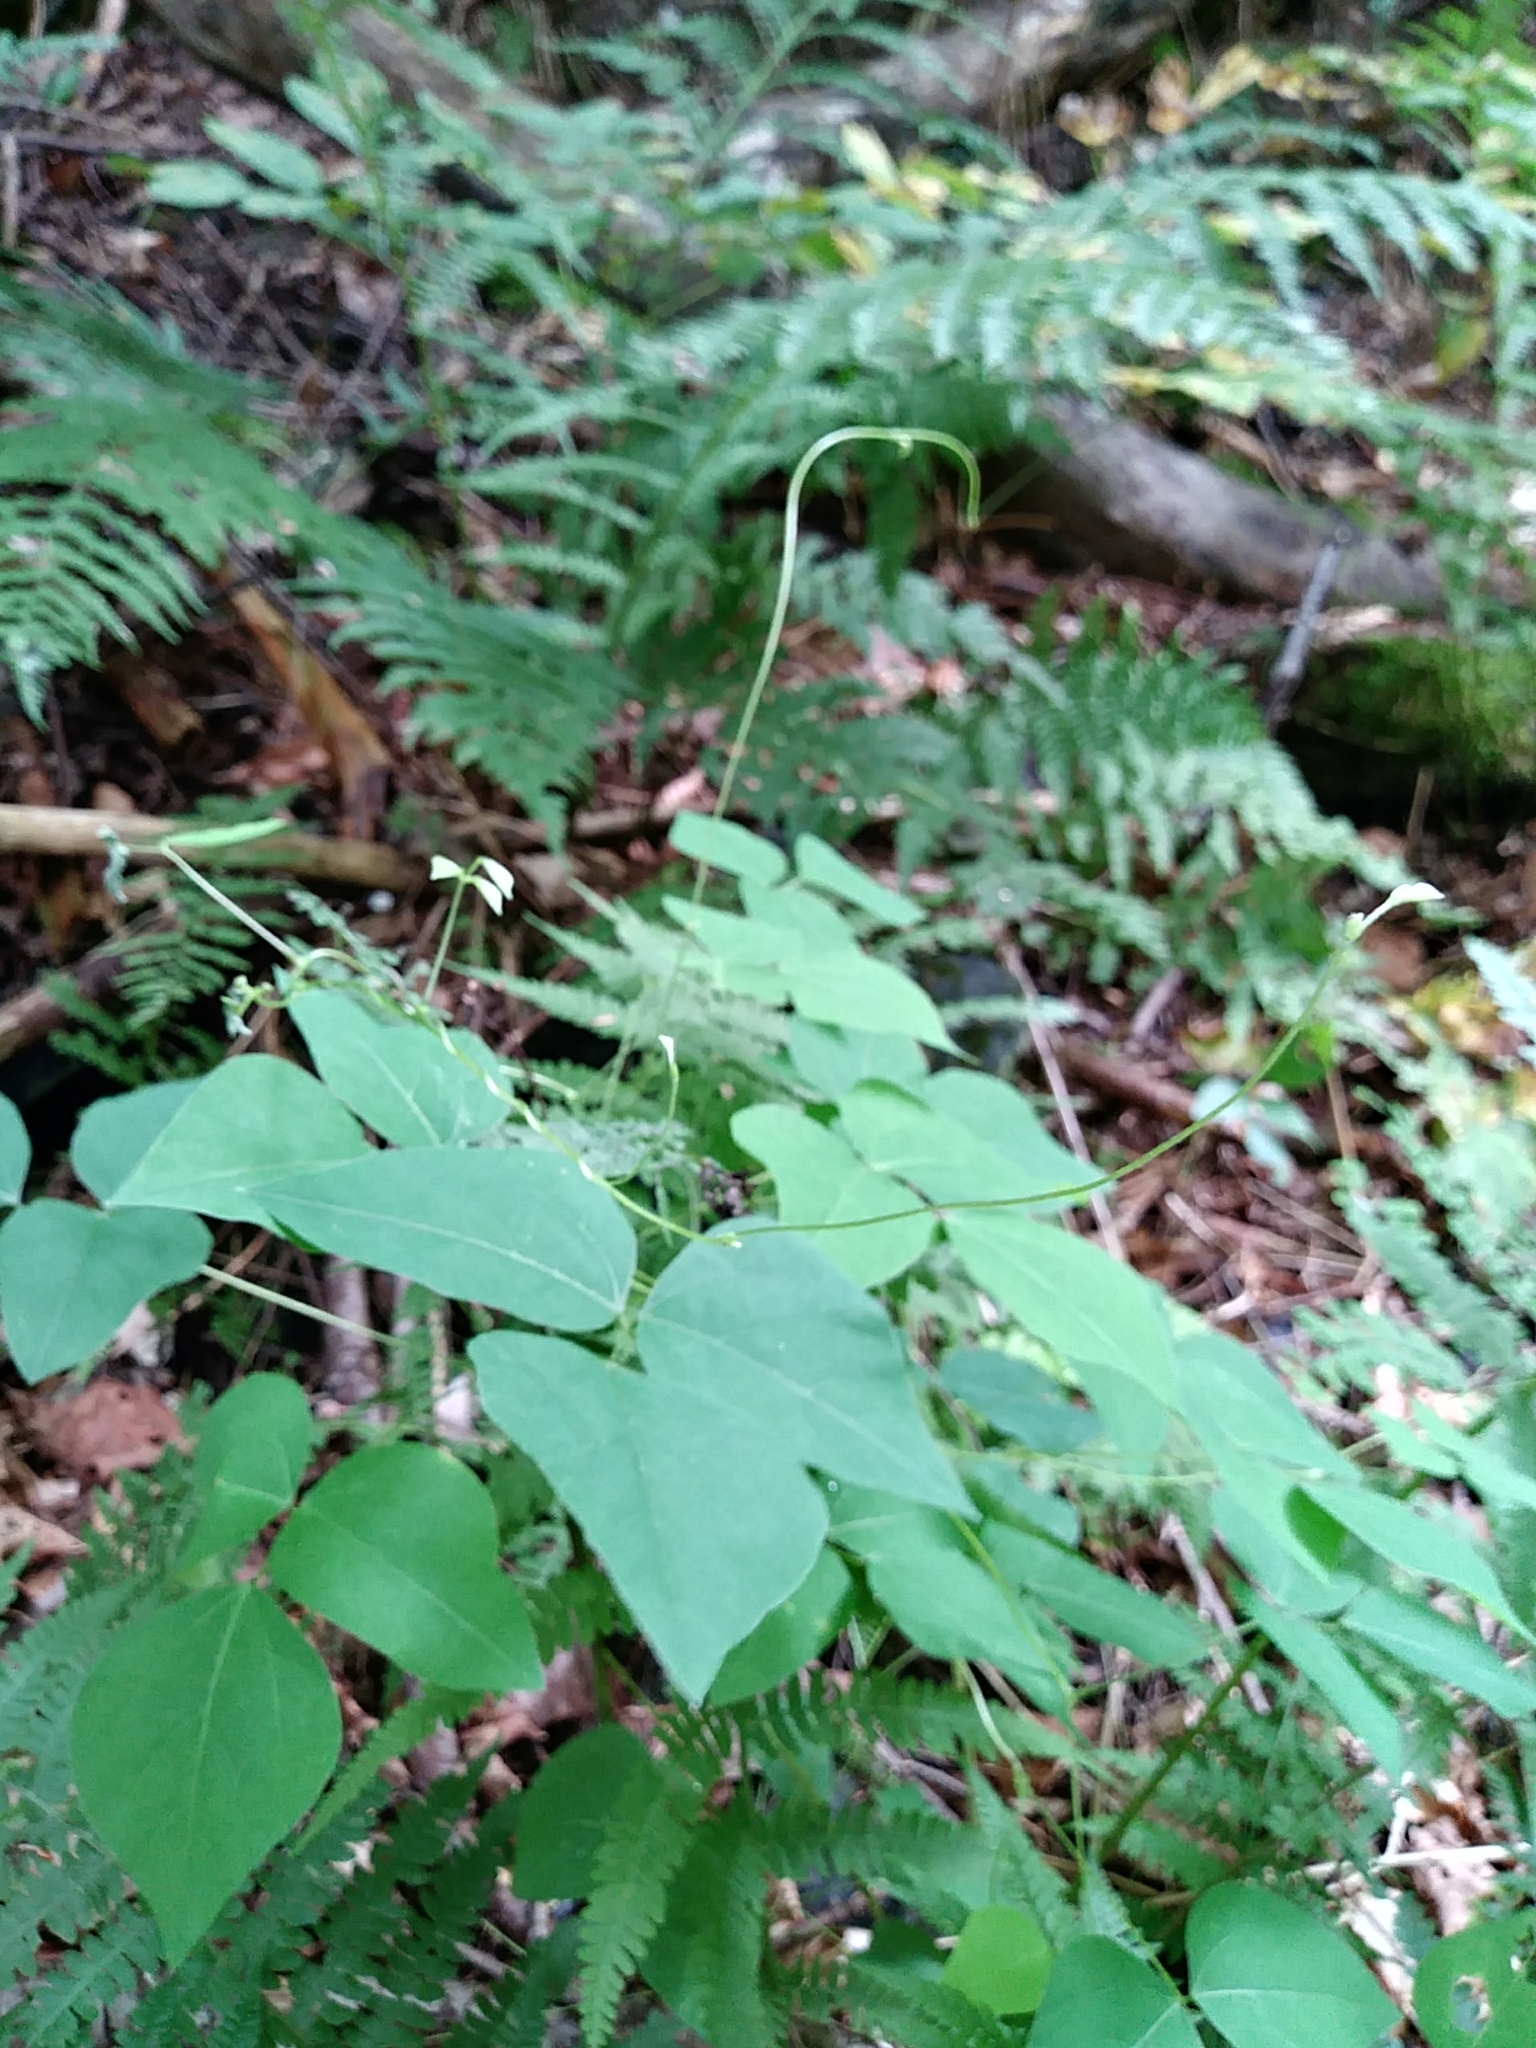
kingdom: Plantae
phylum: Tracheophyta
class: Magnoliopsida
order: Fabales
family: Fabaceae
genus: Amphicarpaea
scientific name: Amphicarpaea bracteata
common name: American hog peanut
